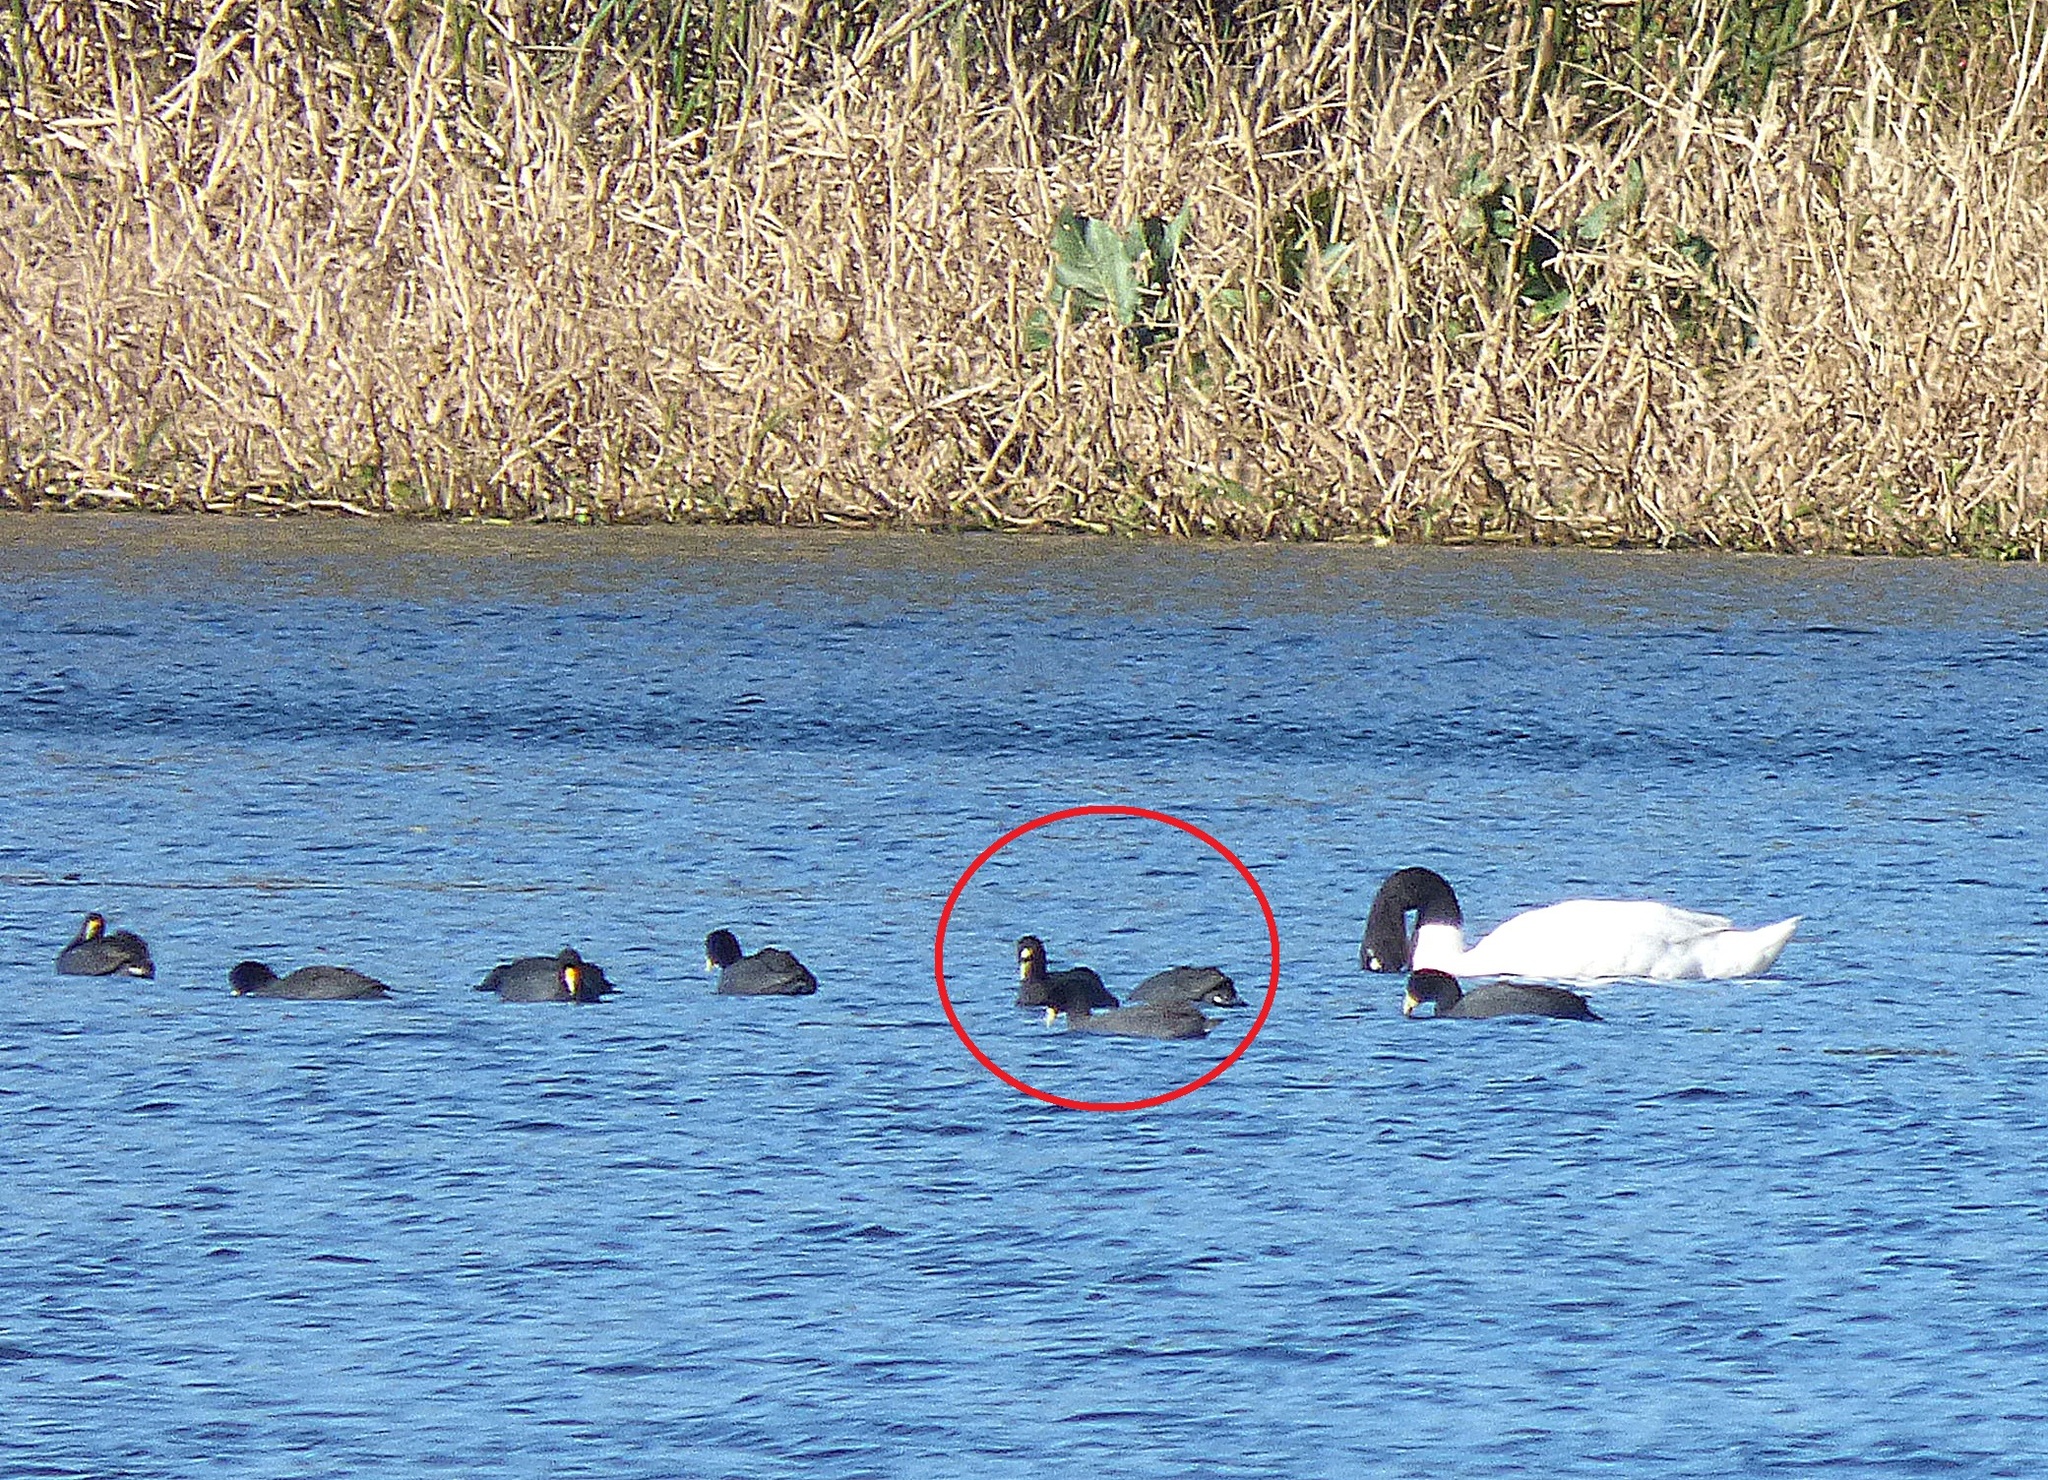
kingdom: Animalia
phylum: Chordata
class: Aves
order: Gruiformes
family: Rallidae
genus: Fulica
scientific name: Fulica armillata
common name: Red-gartered coot
